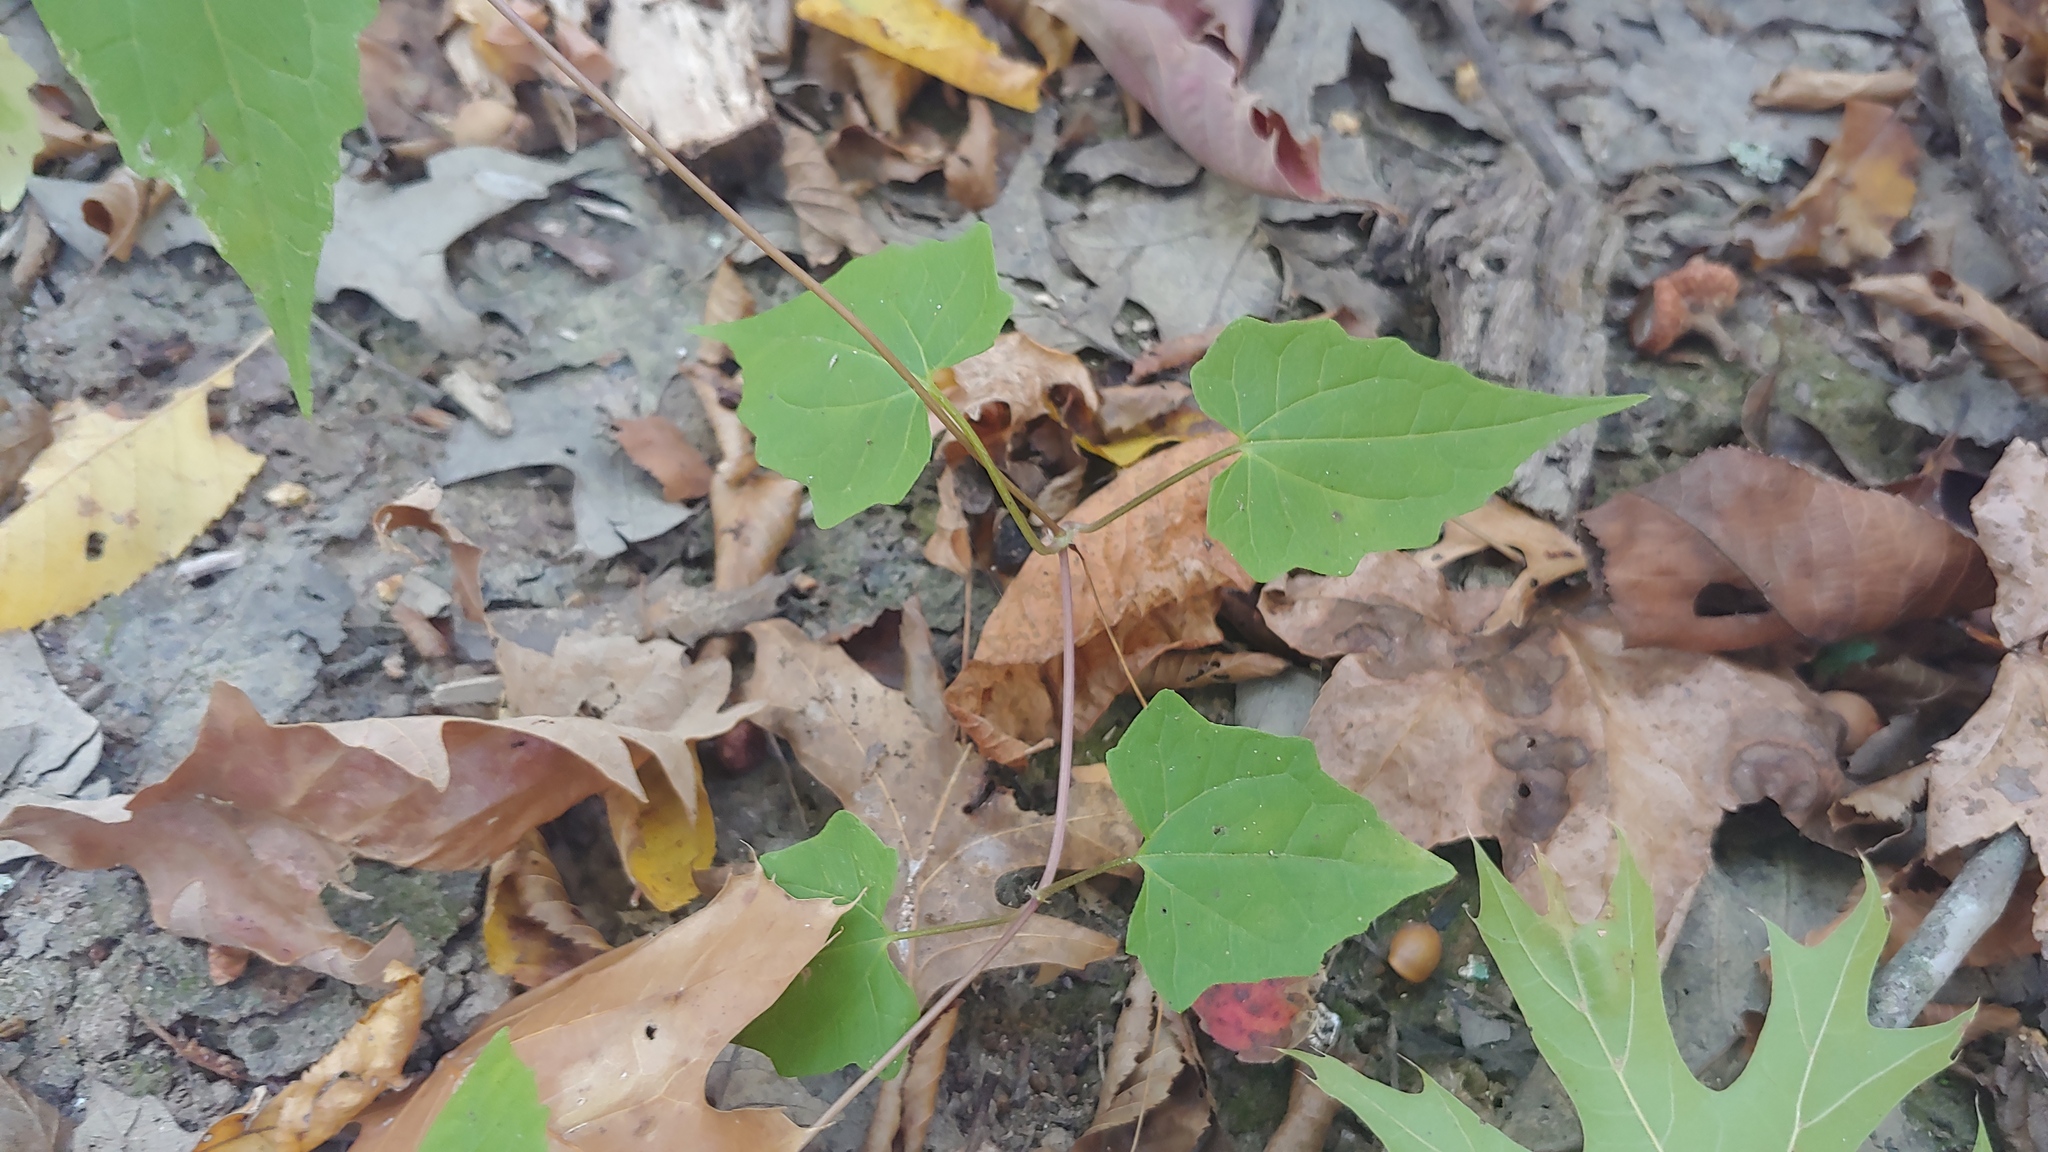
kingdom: Plantae
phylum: Tracheophyta
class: Magnoliopsida
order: Asterales
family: Asteraceae
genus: Mikania
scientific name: Mikania scandens
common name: Climbing hempvine
